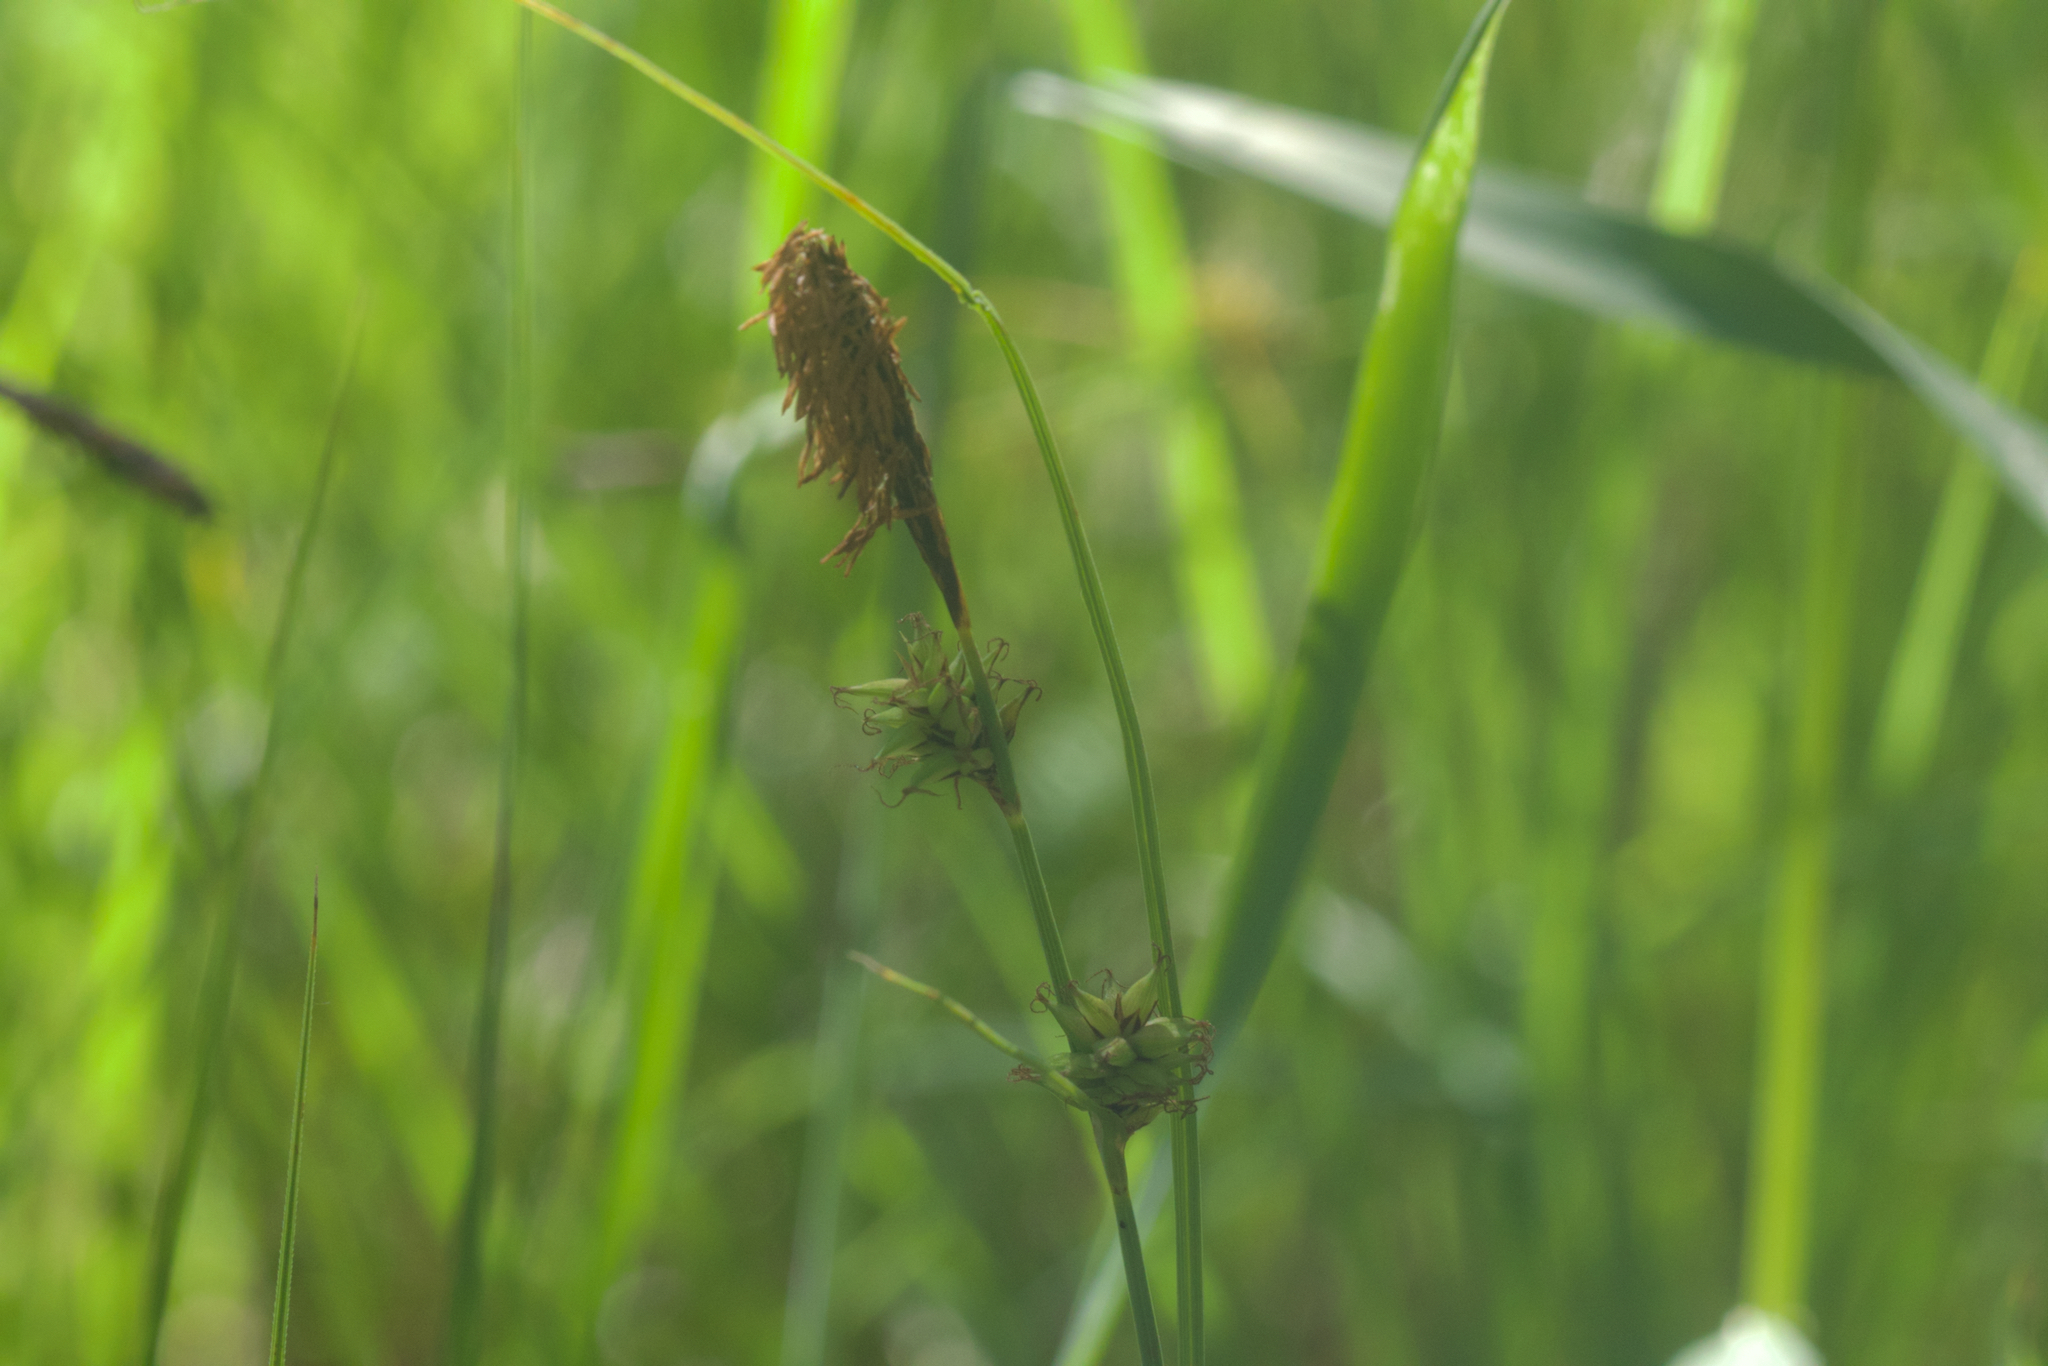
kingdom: Plantae
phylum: Tracheophyta
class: Liliopsida
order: Poales
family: Cyperaceae
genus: Carex
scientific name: Carex serratodens
